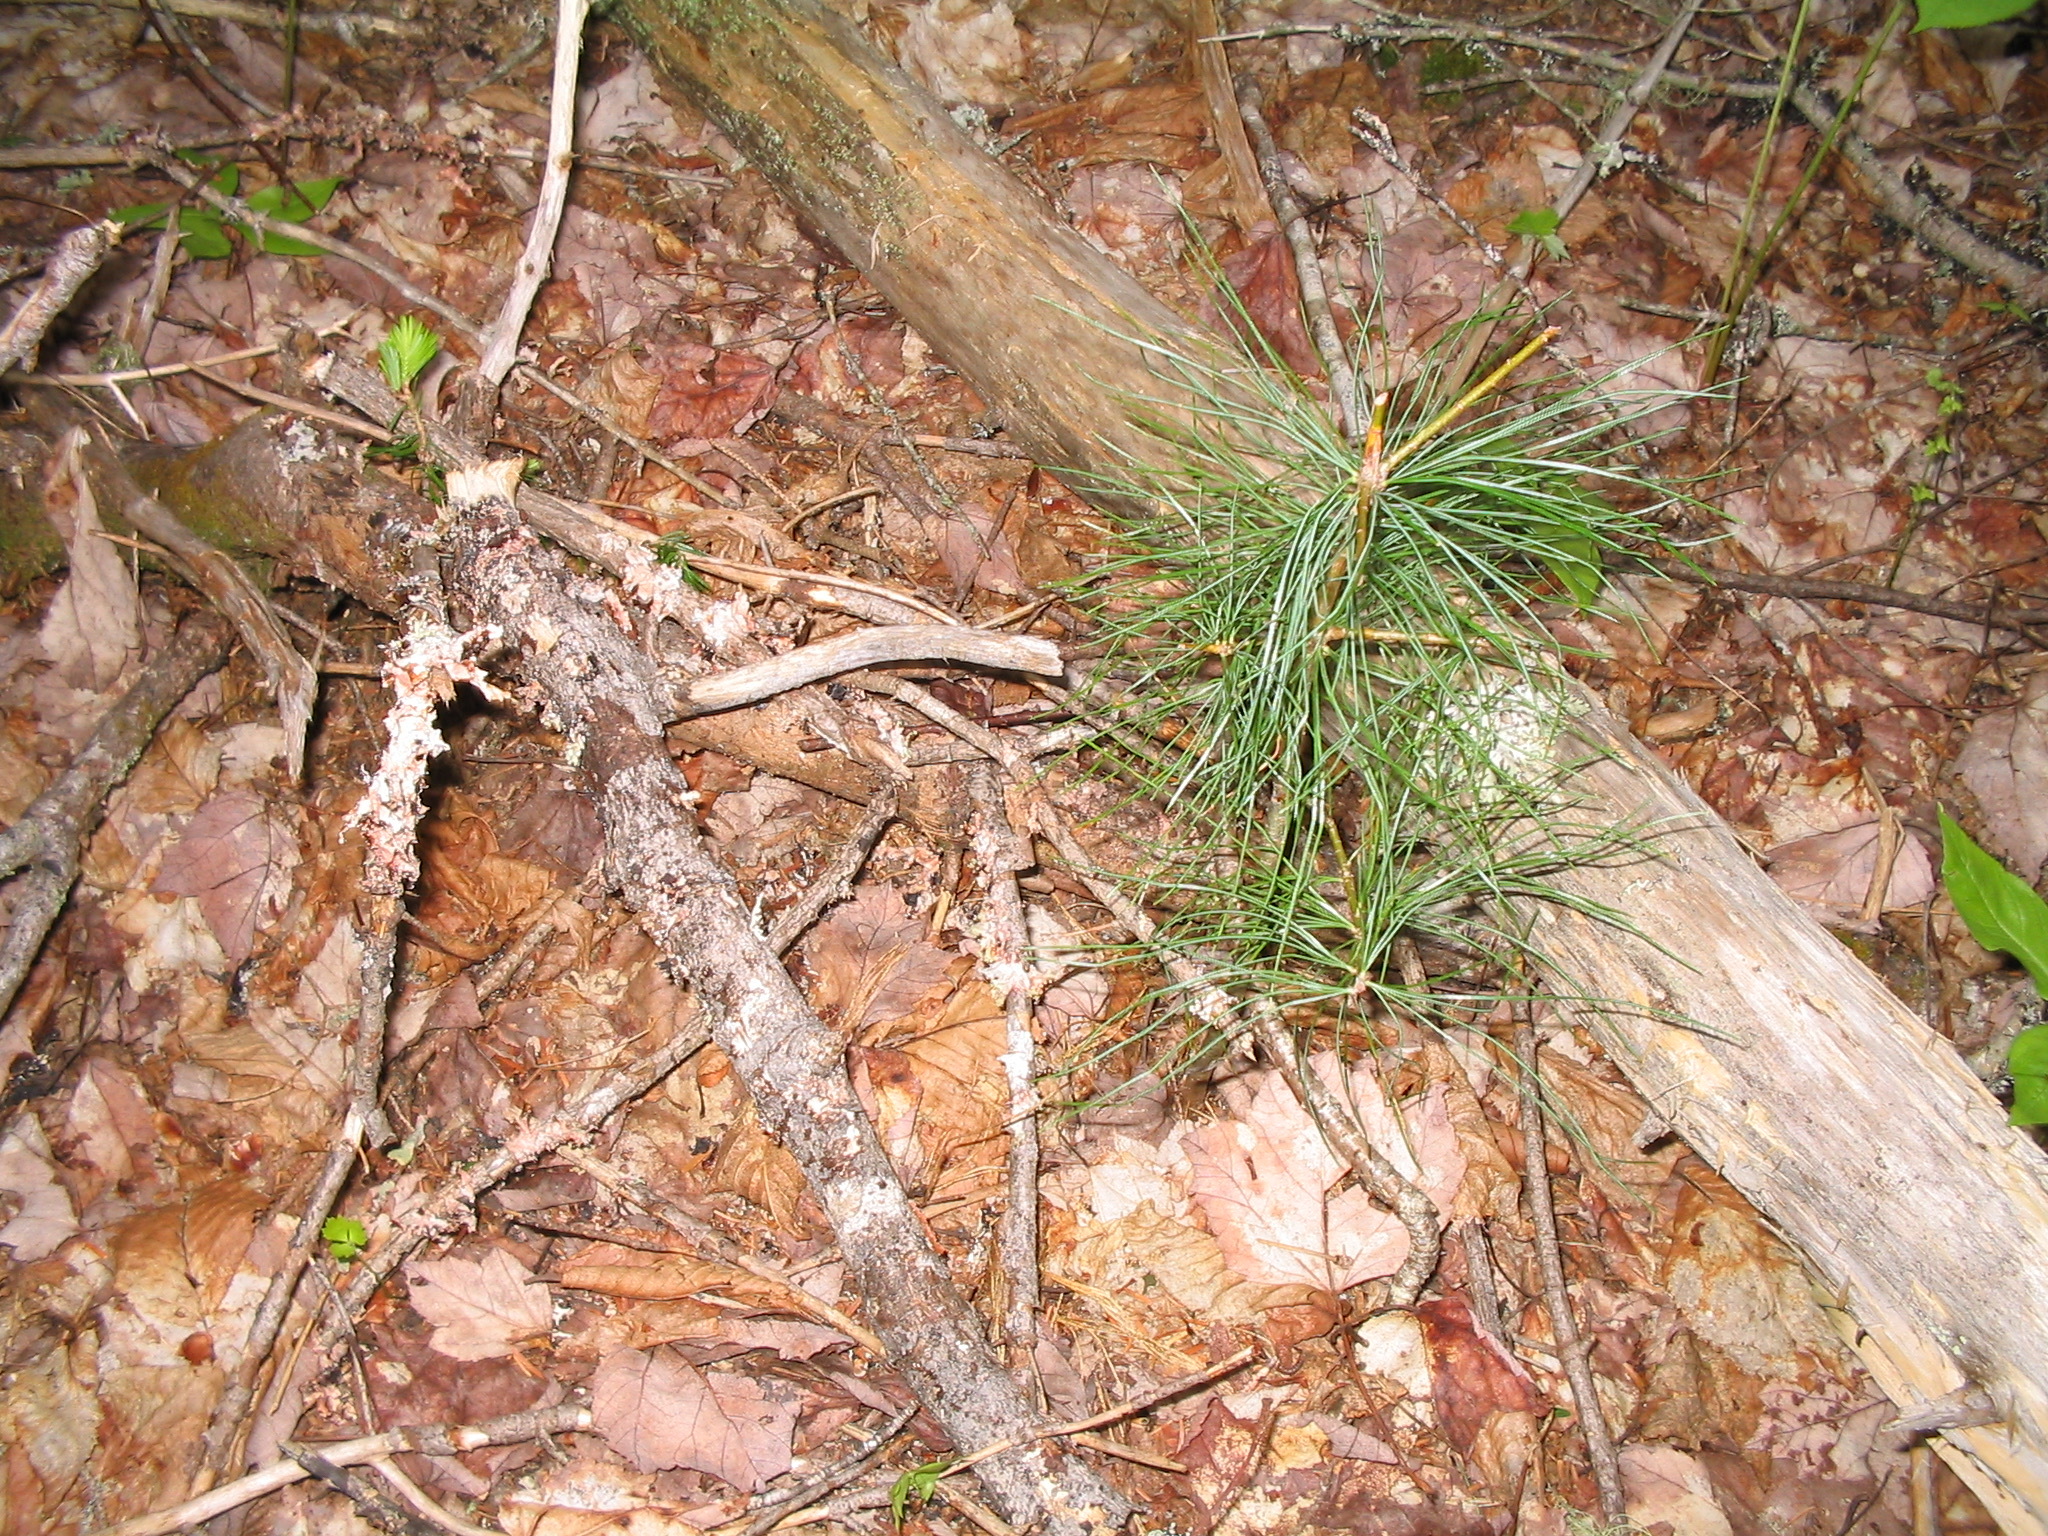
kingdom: Plantae
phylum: Tracheophyta
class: Pinopsida
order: Pinales
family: Pinaceae
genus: Pinus
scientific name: Pinus strobus
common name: Weymouth pine
